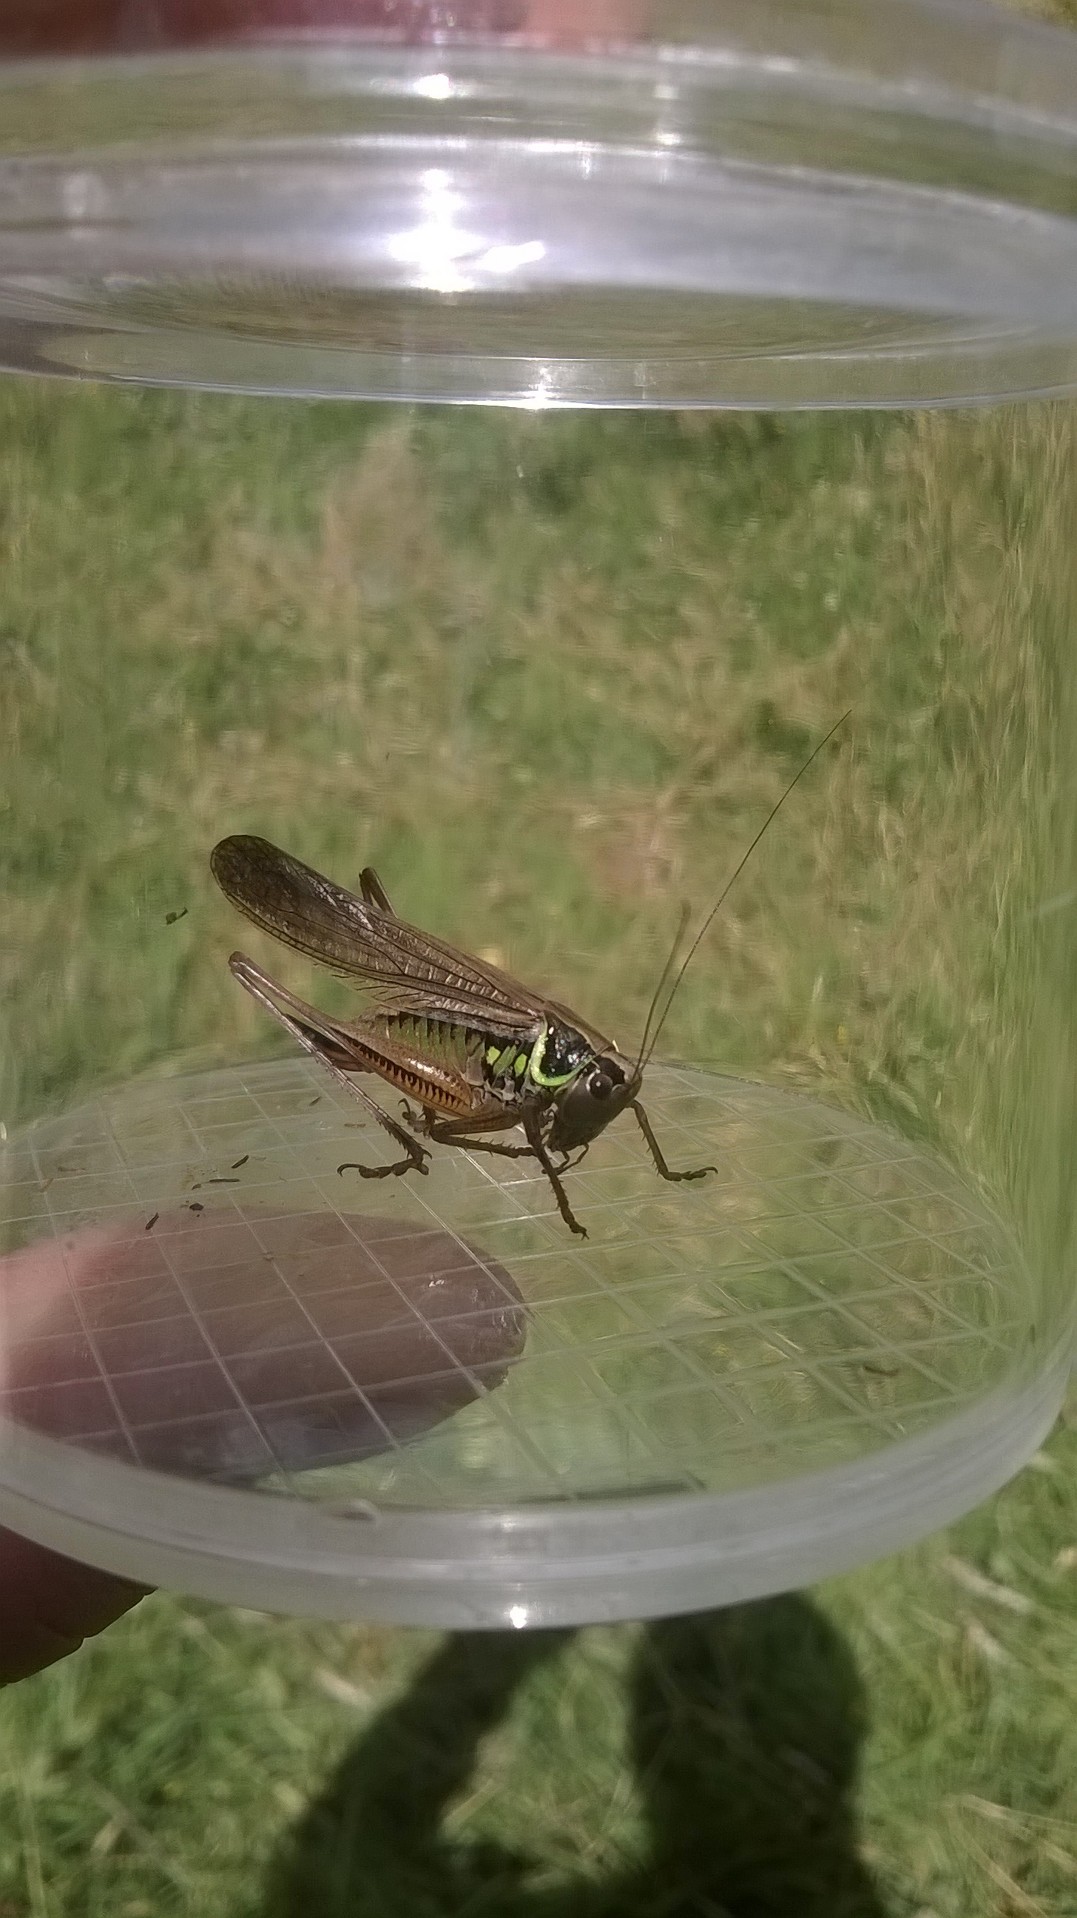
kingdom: Animalia
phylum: Arthropoda
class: Insecta
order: Orthoptera
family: Tettigoniidae
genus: Roeseliana
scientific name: Roeseliana roeselii
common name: Roesel's bush cricket
